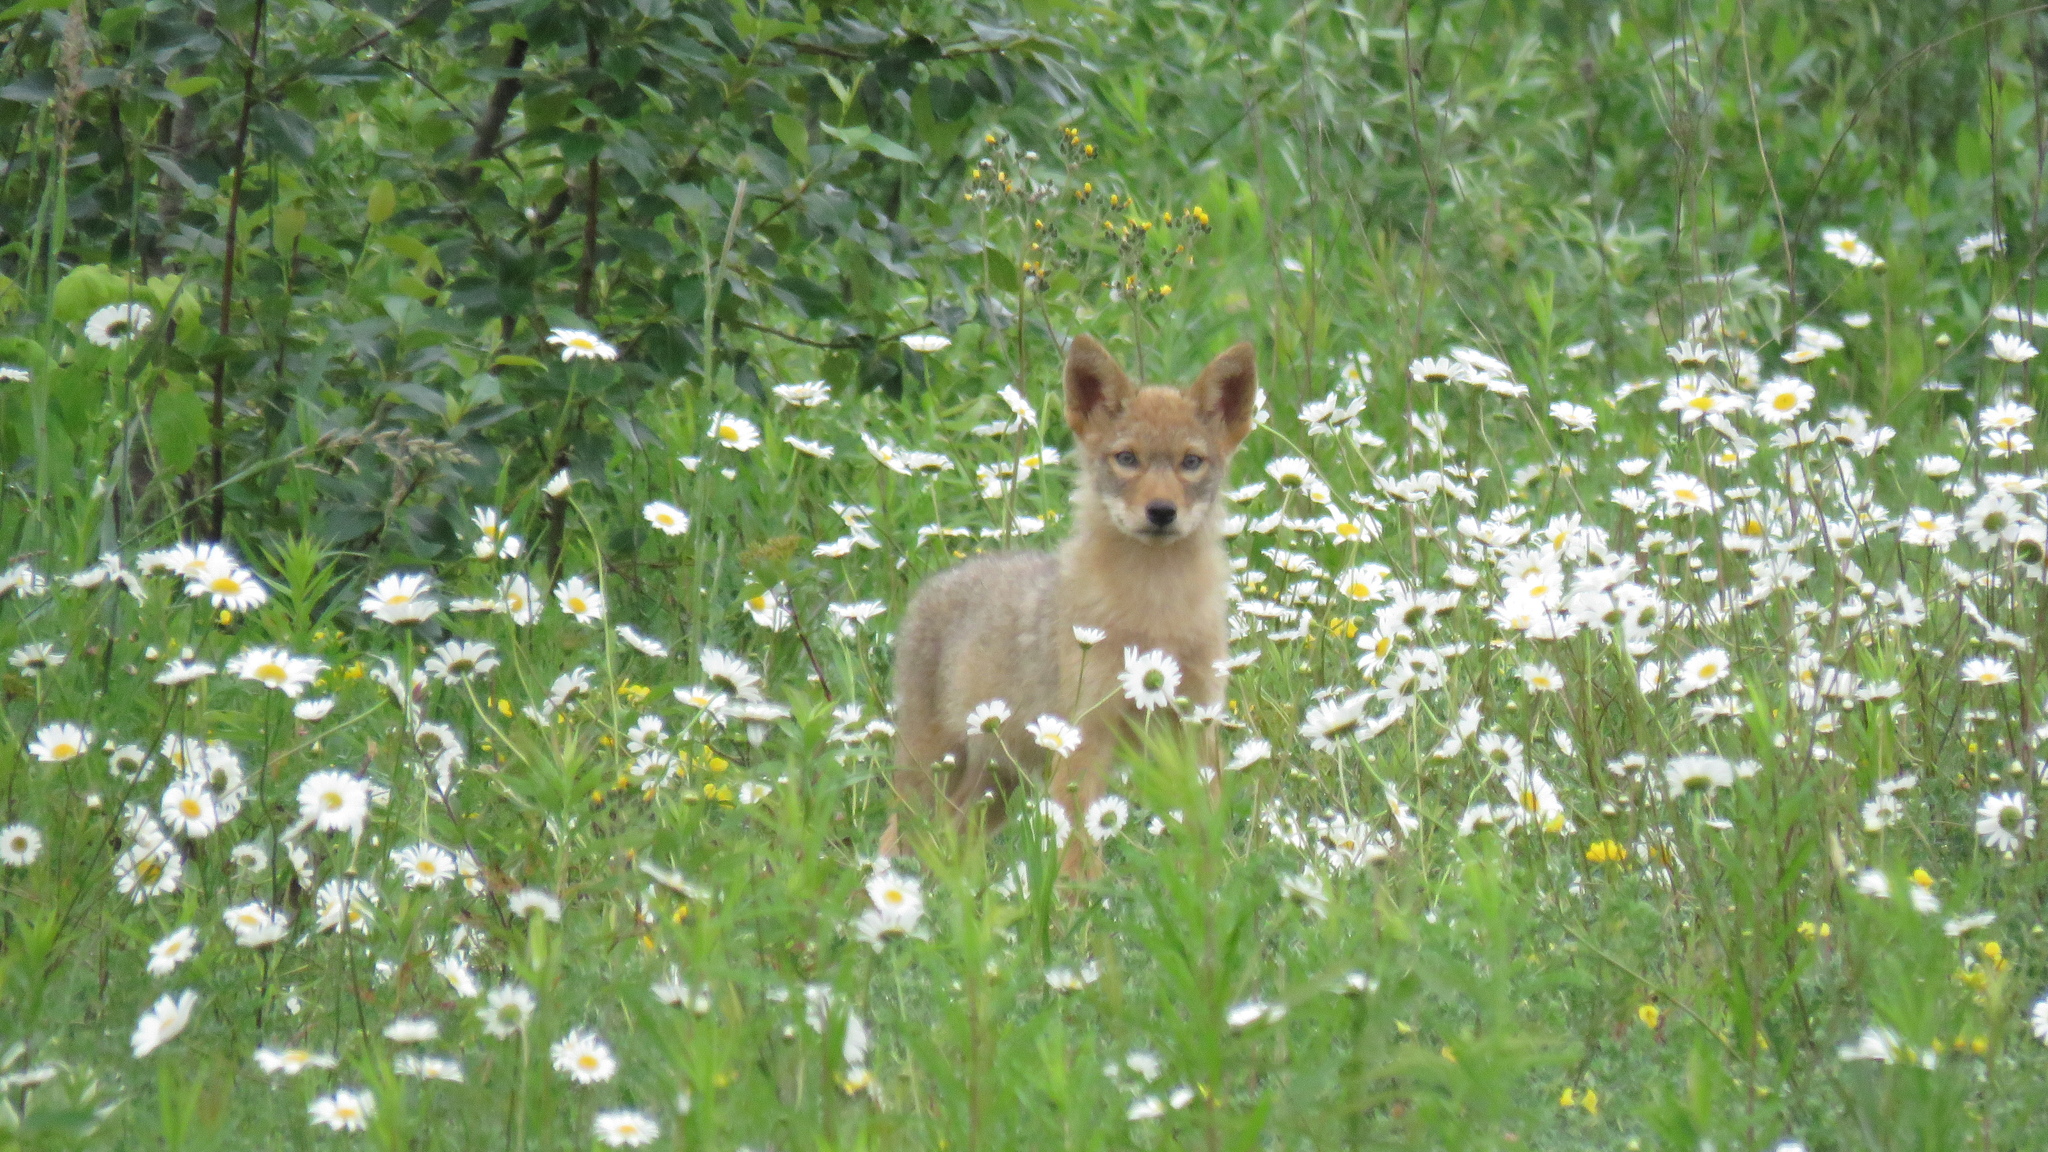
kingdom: Animalia
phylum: Chordata
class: Mammalia
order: Carnivora
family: Canidae
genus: Canis
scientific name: Canis latrans
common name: Coyote
